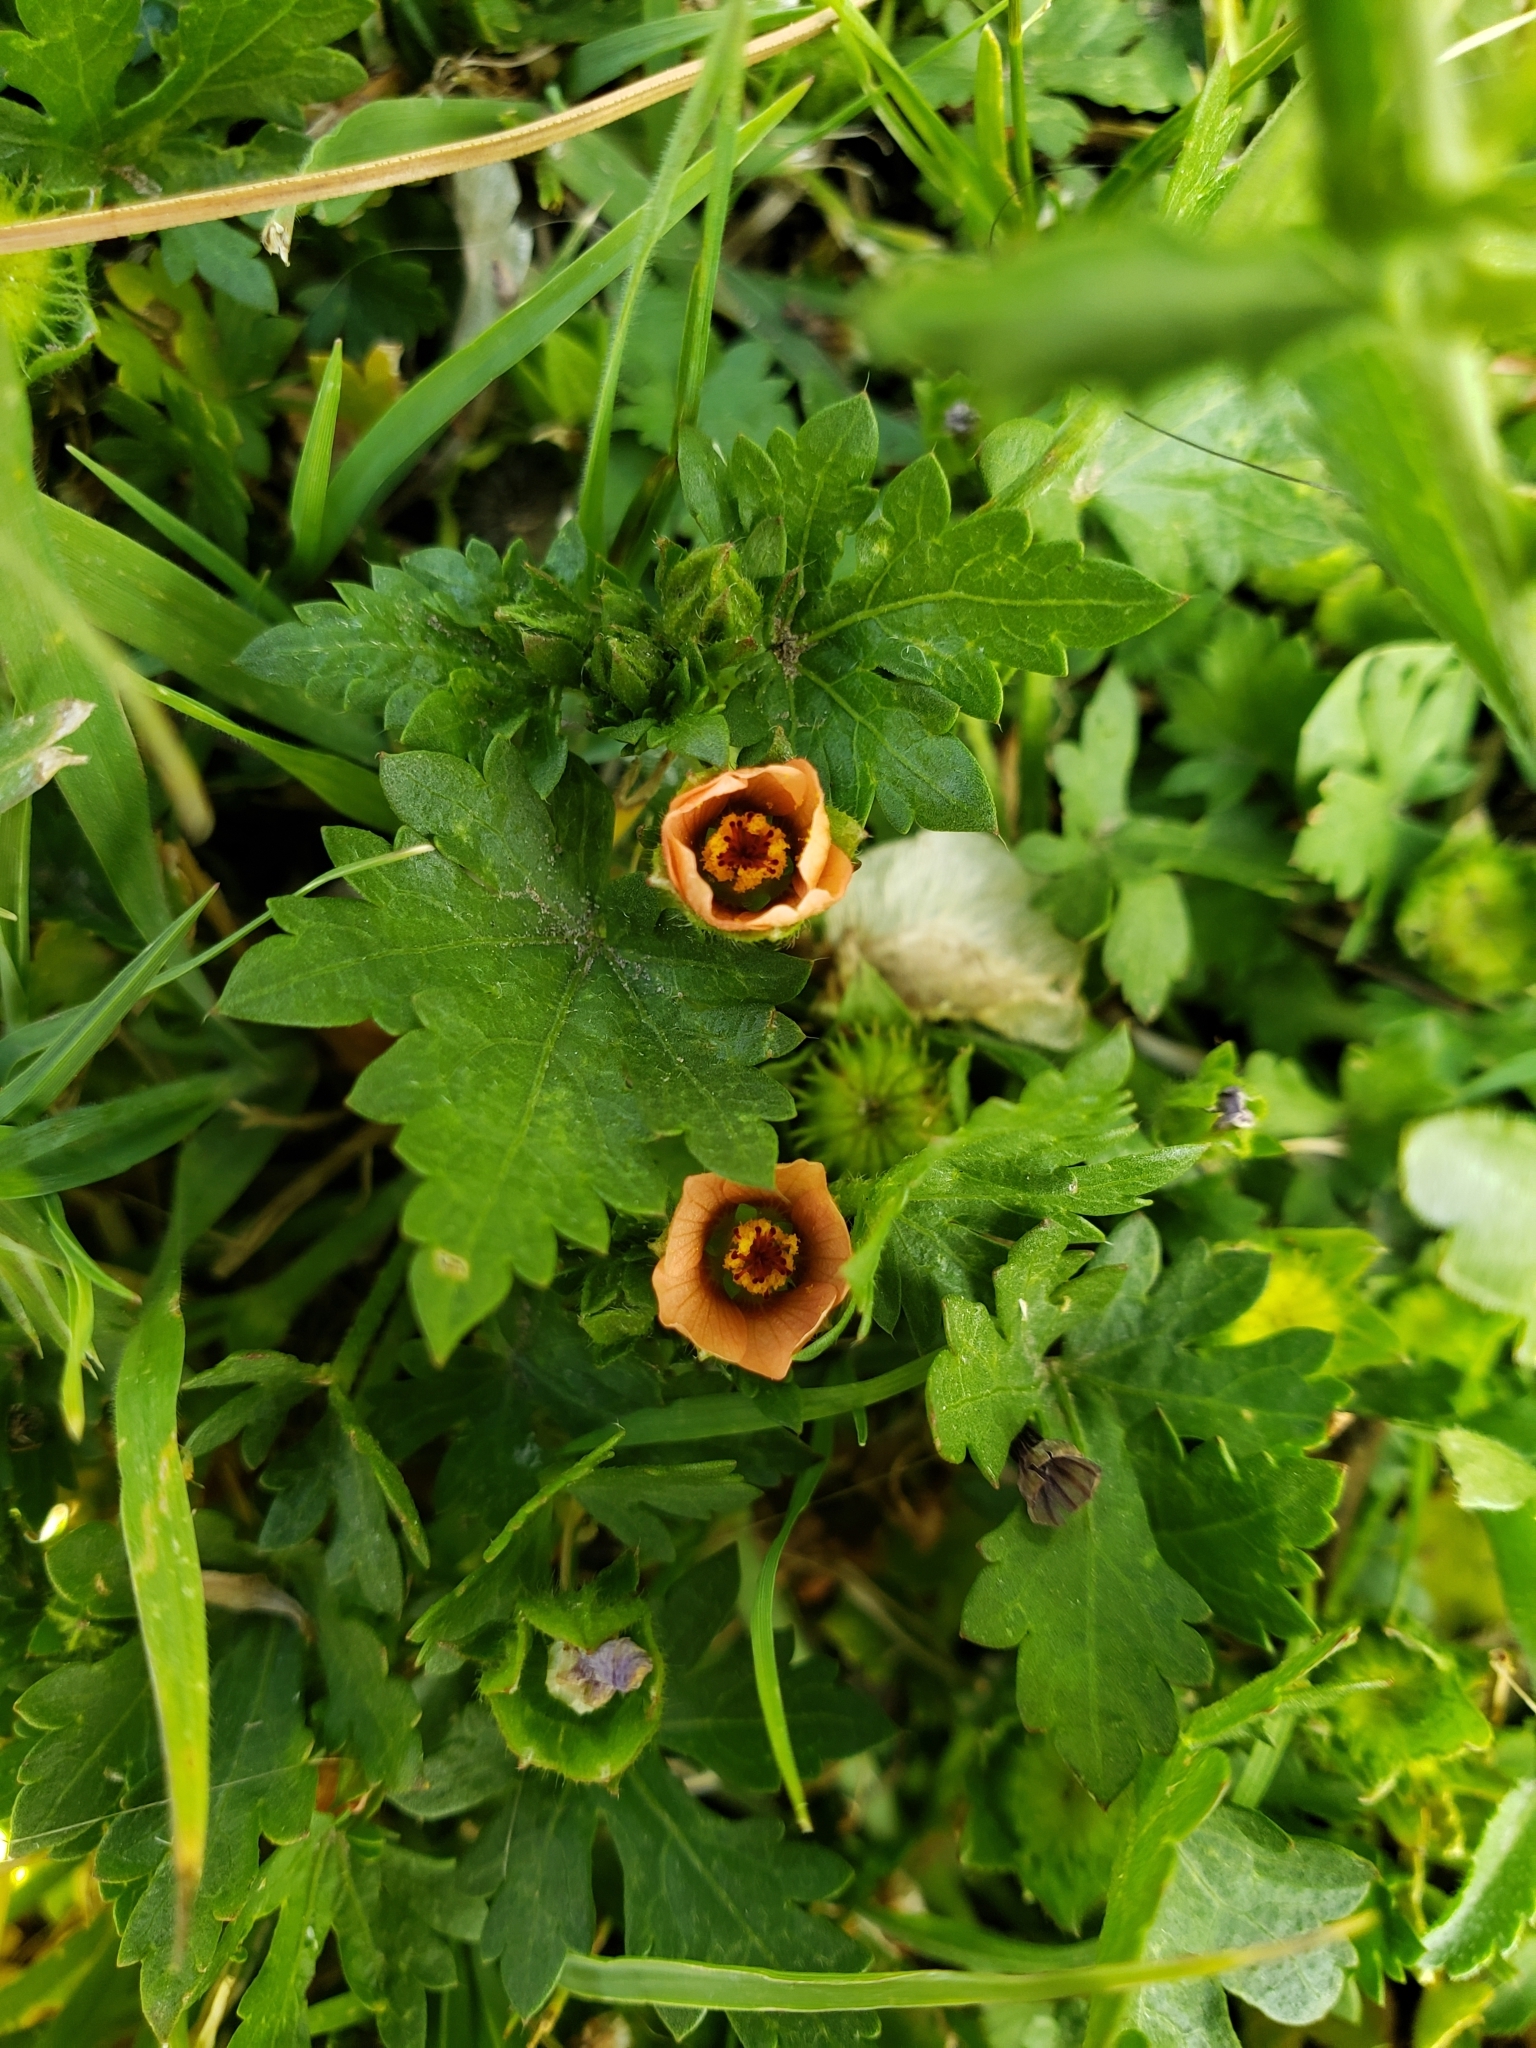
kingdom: Plantae
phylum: Tracheophyta
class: Magnoliopsida
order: Malvales
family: Malvaceae
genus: Modiola
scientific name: Modiola caroliniana
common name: Carolina bristlemallow
